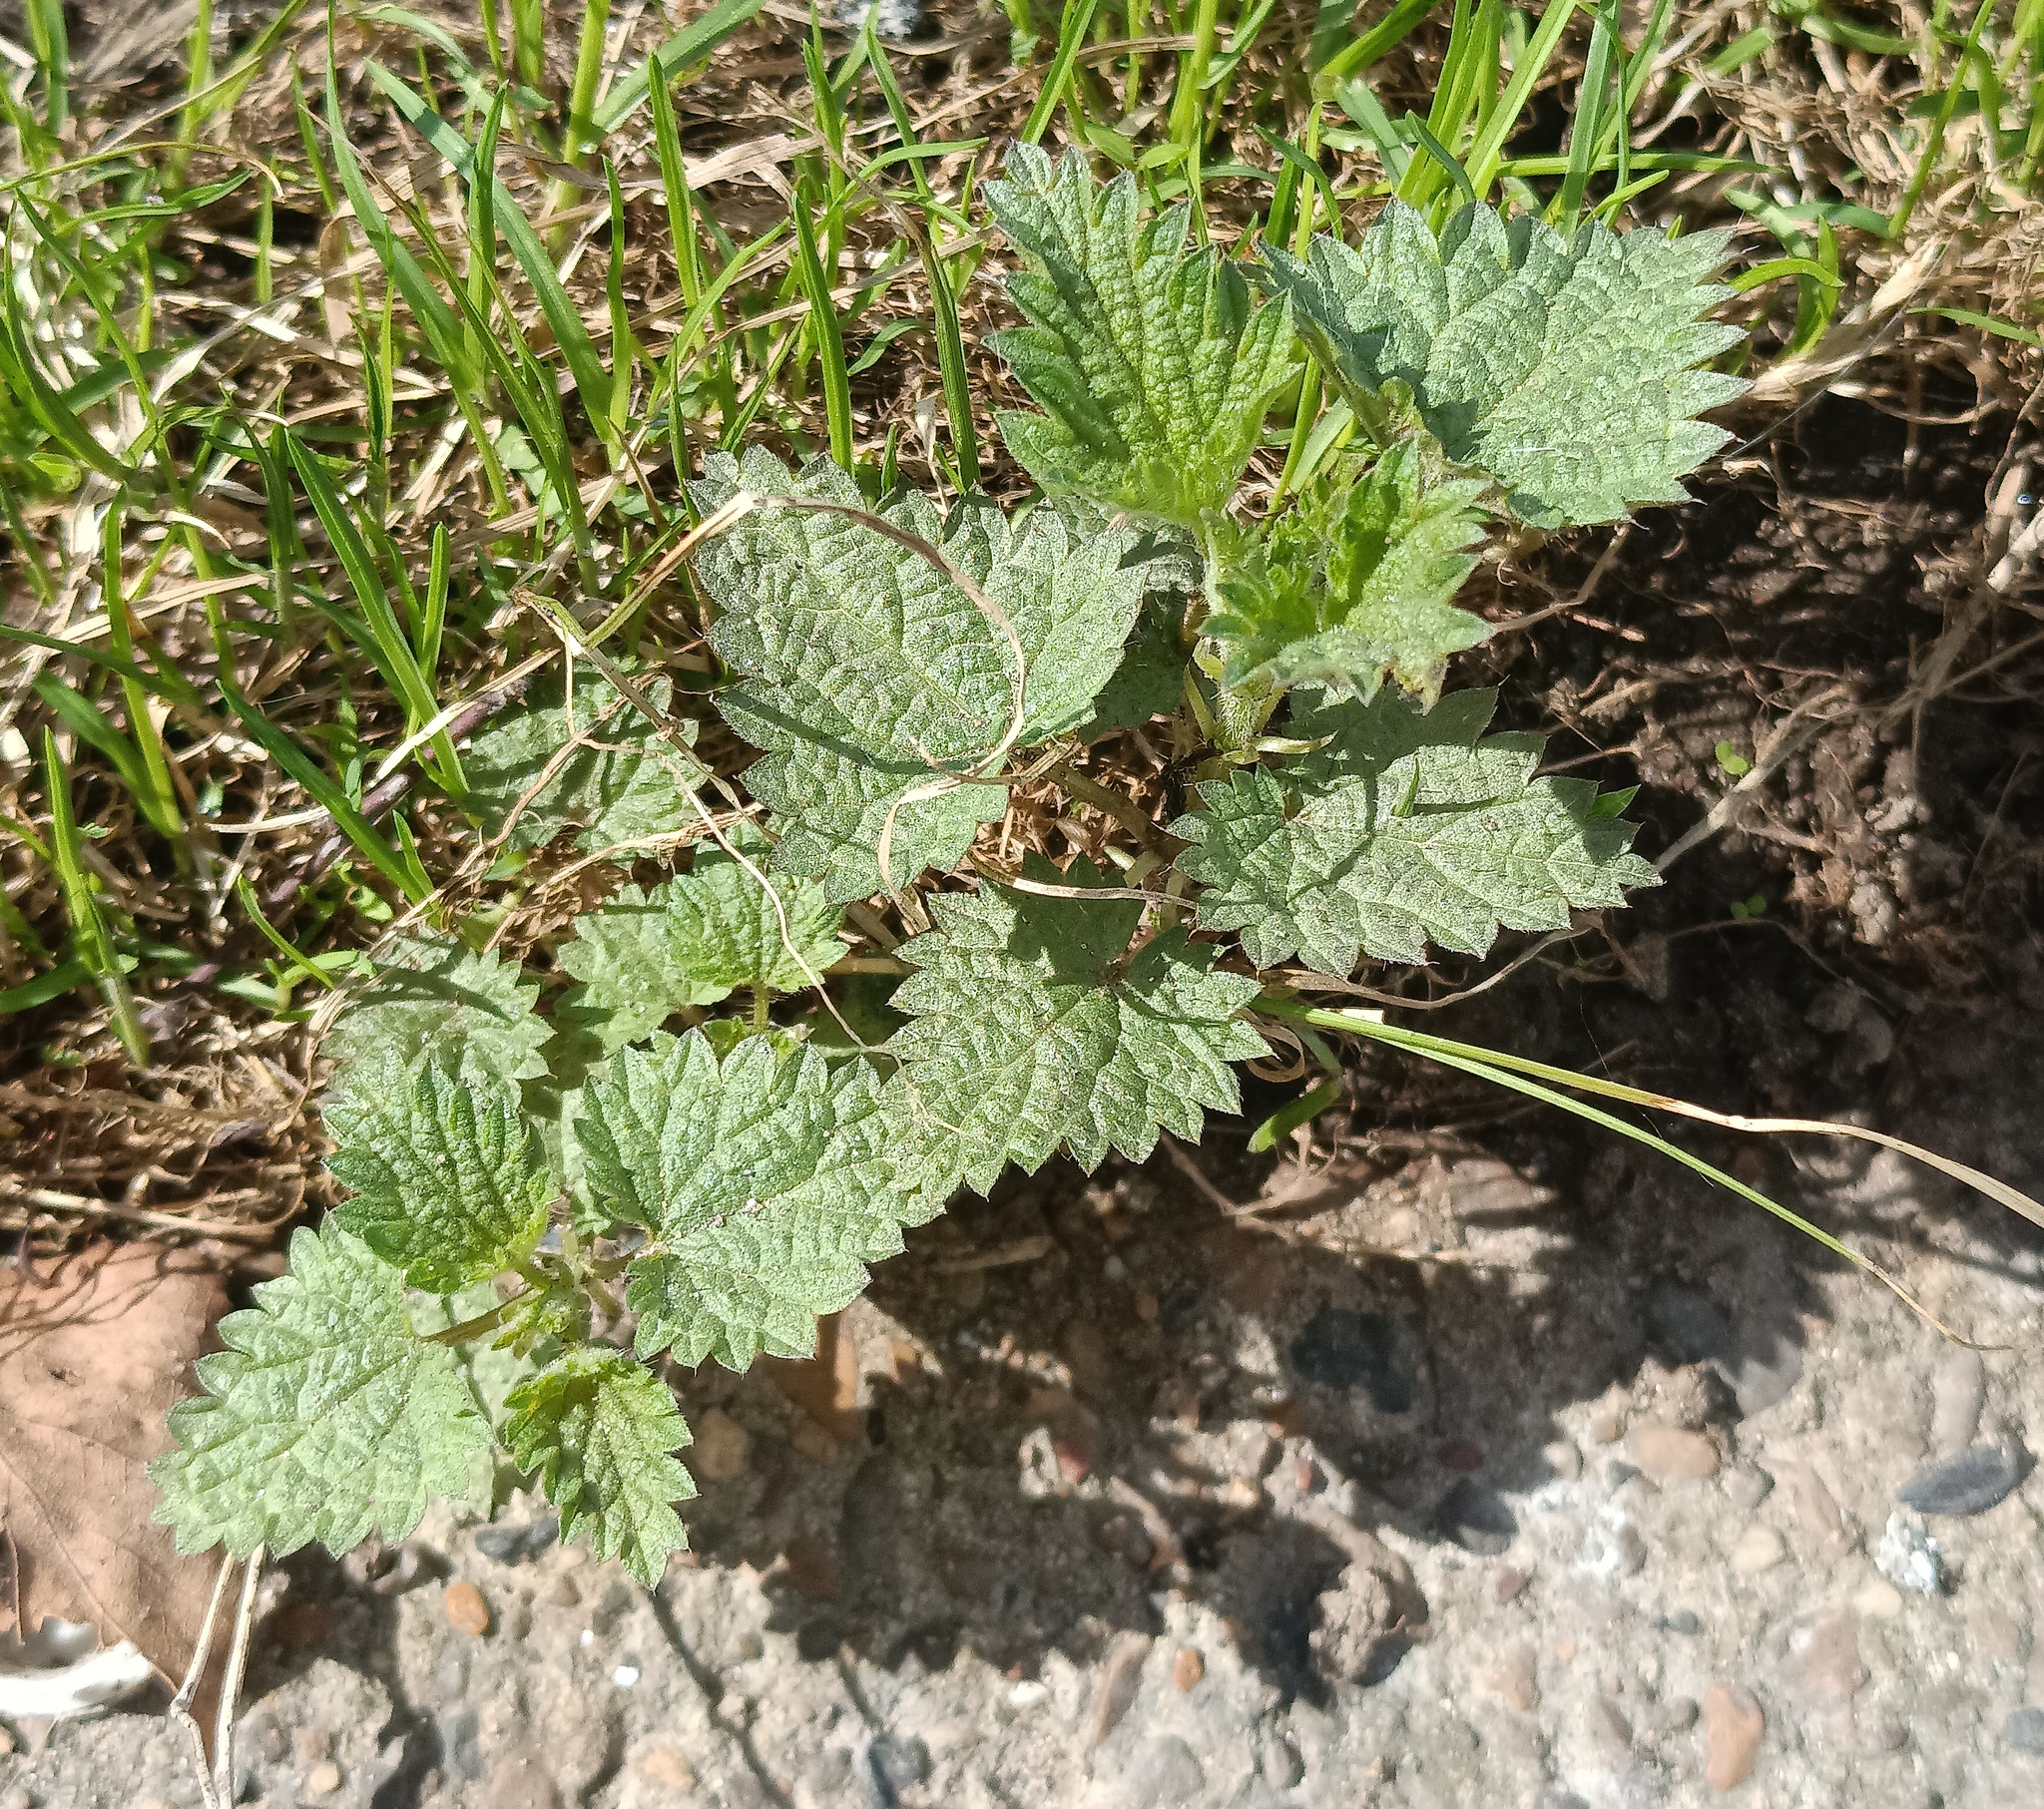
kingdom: Plantae
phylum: Tracheophyta
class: Magnoliopsida
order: Rosales
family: Urticaceae
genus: Urtica
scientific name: Urtica dioica
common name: Common nettle
